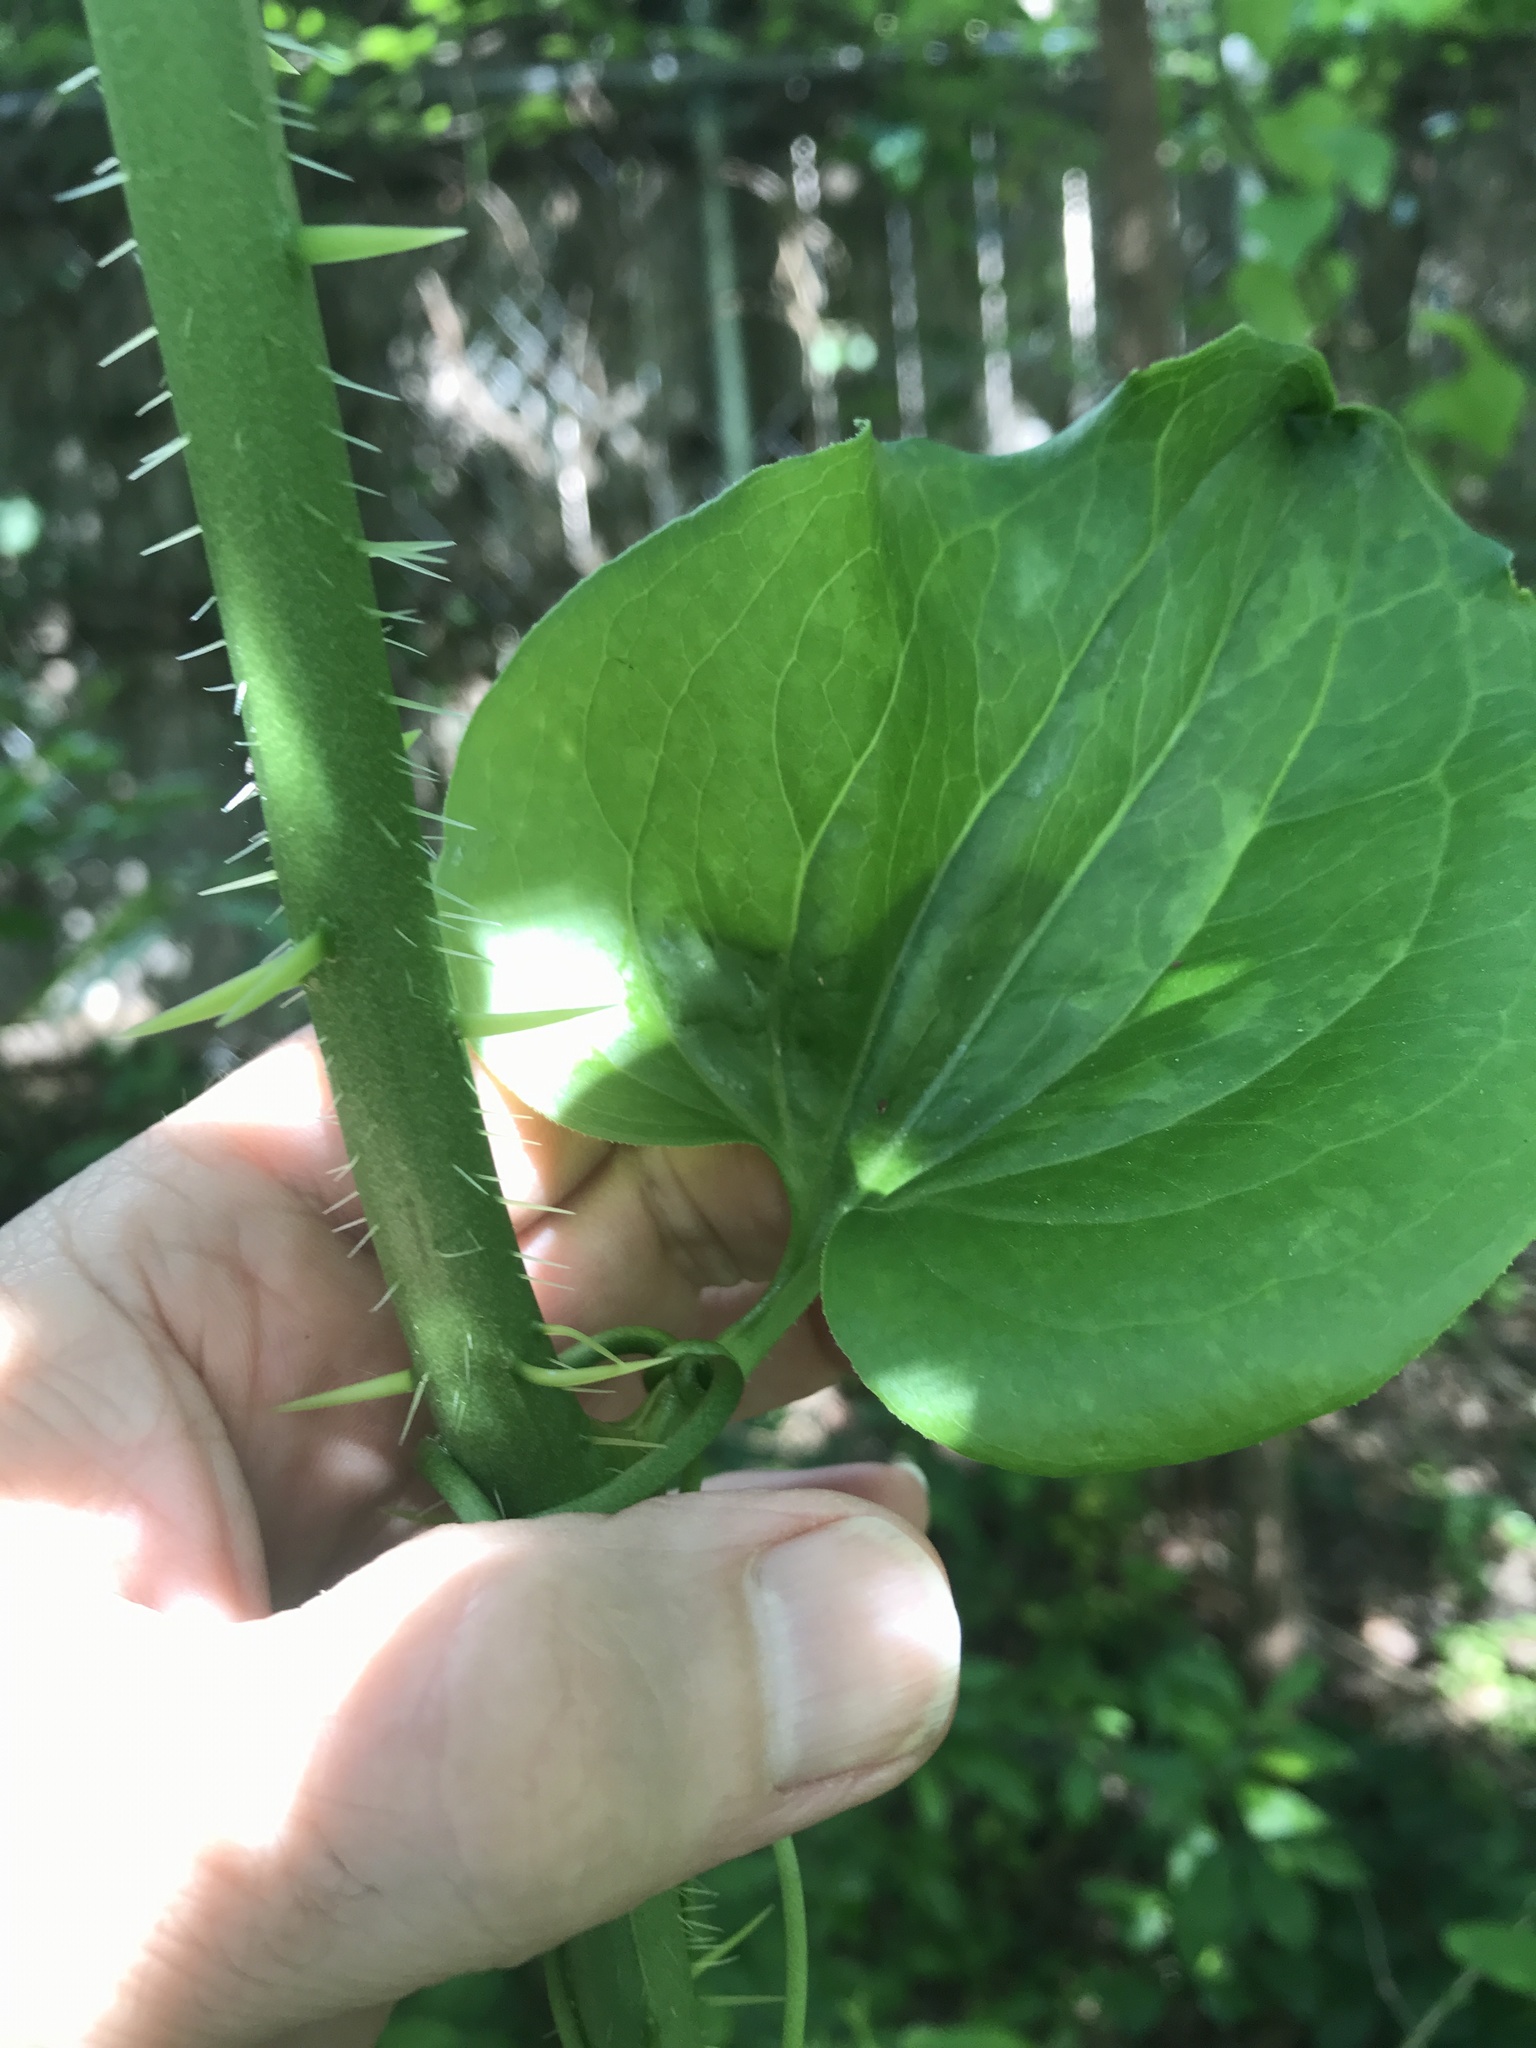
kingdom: Plantae
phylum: Tracheophyta
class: Liliopsida
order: Liliales
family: Smilacaceae
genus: Smilax
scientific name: Smilax tamnoides
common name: Hellfetter
